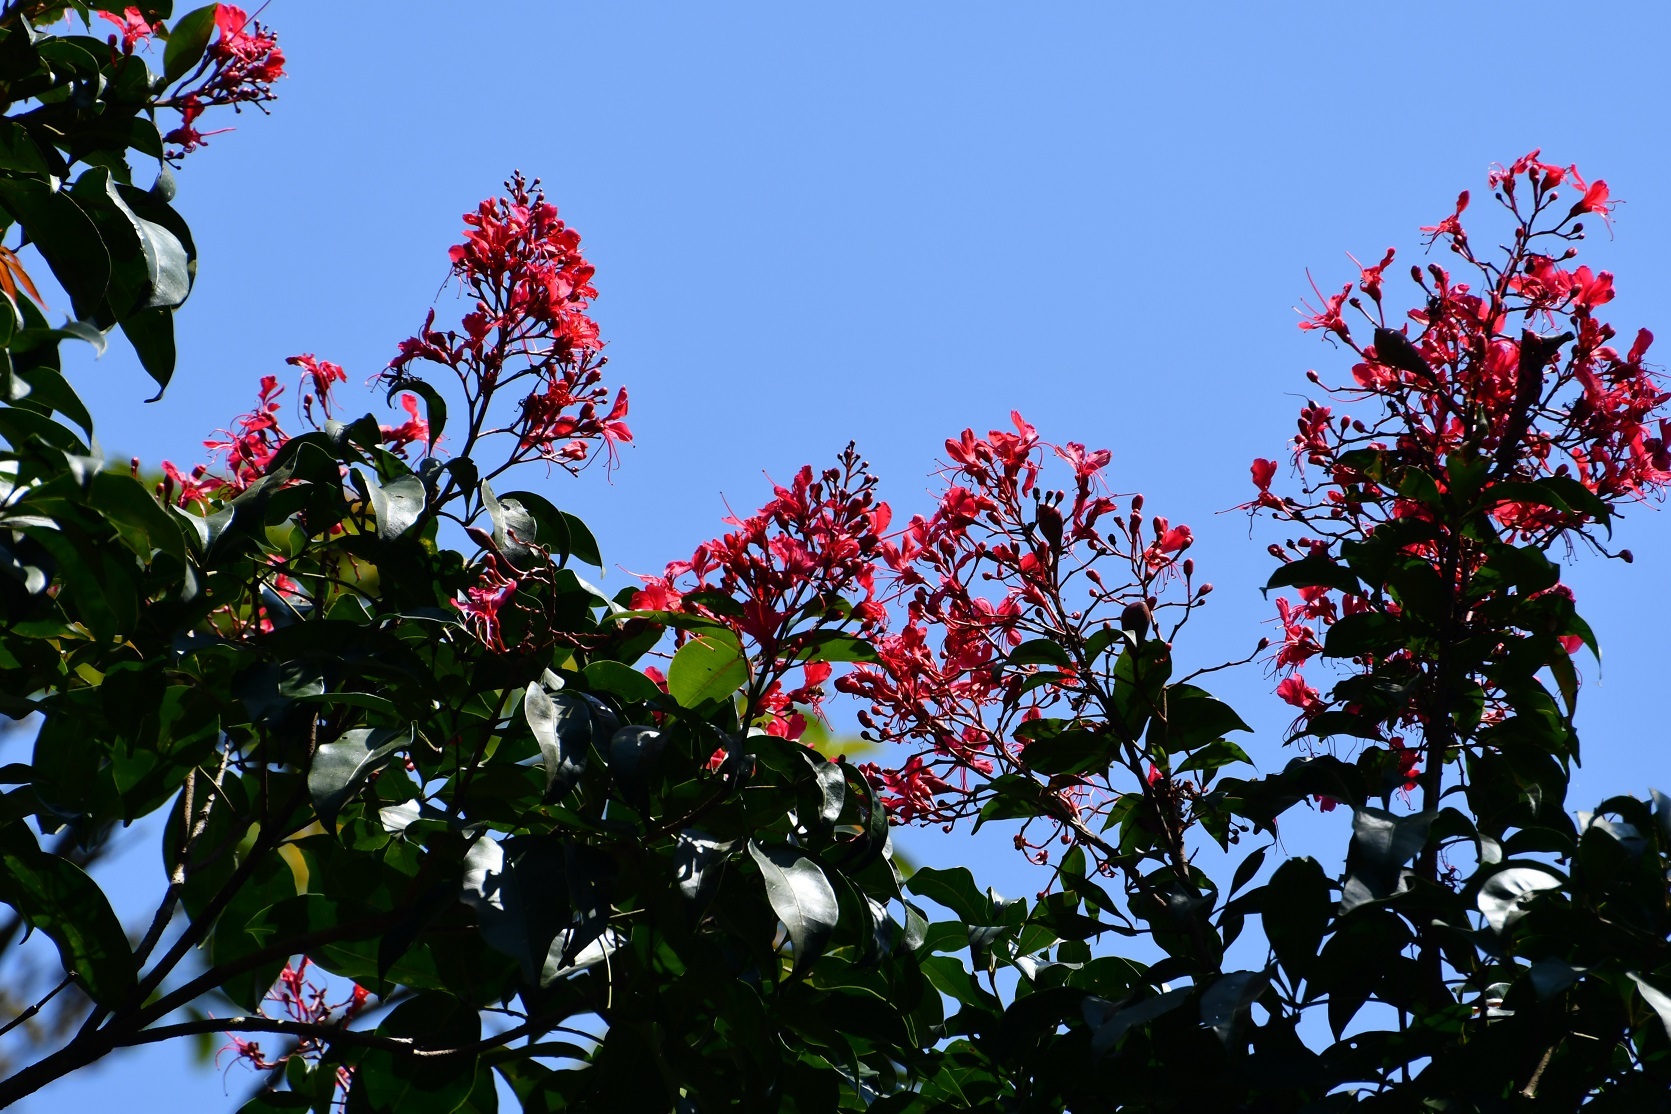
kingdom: Plantae
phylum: Tracheophyta
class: Magnoliopsida
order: Sapindales
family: Sapindaceae
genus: Billia
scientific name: Billia rosea
